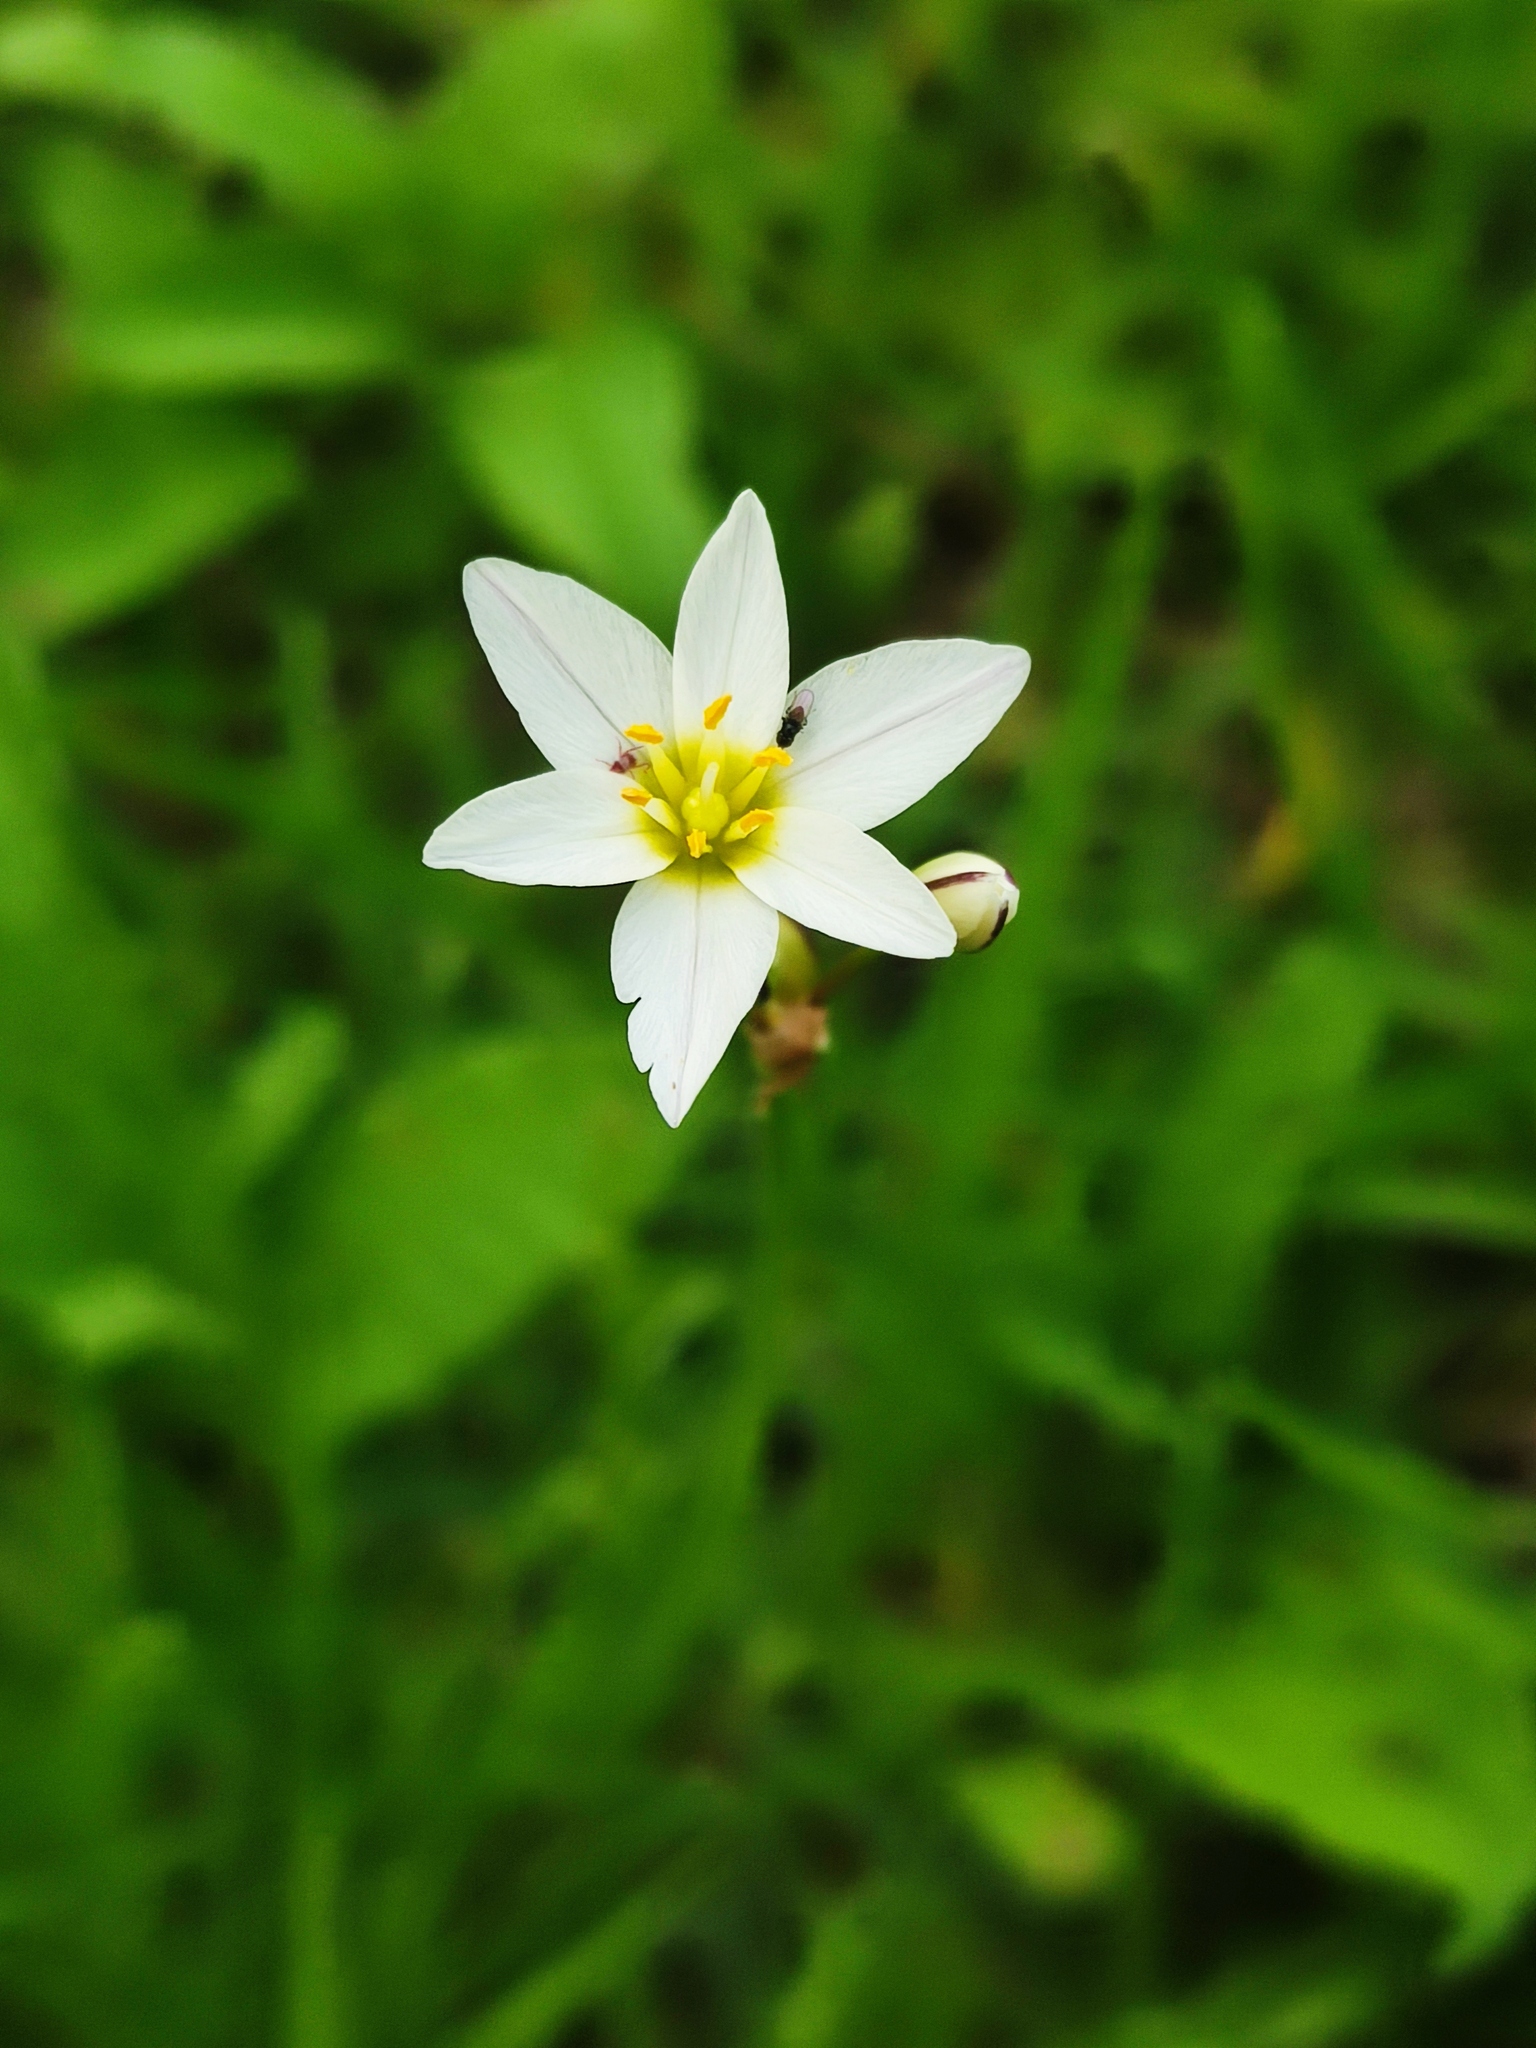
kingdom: Plantae
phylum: Tracheophyta
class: Liliopsida
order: Asparagales
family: Amaryllidaceae
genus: Nothoscordum
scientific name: Nothoscordum bivalve
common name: Crow-poison
